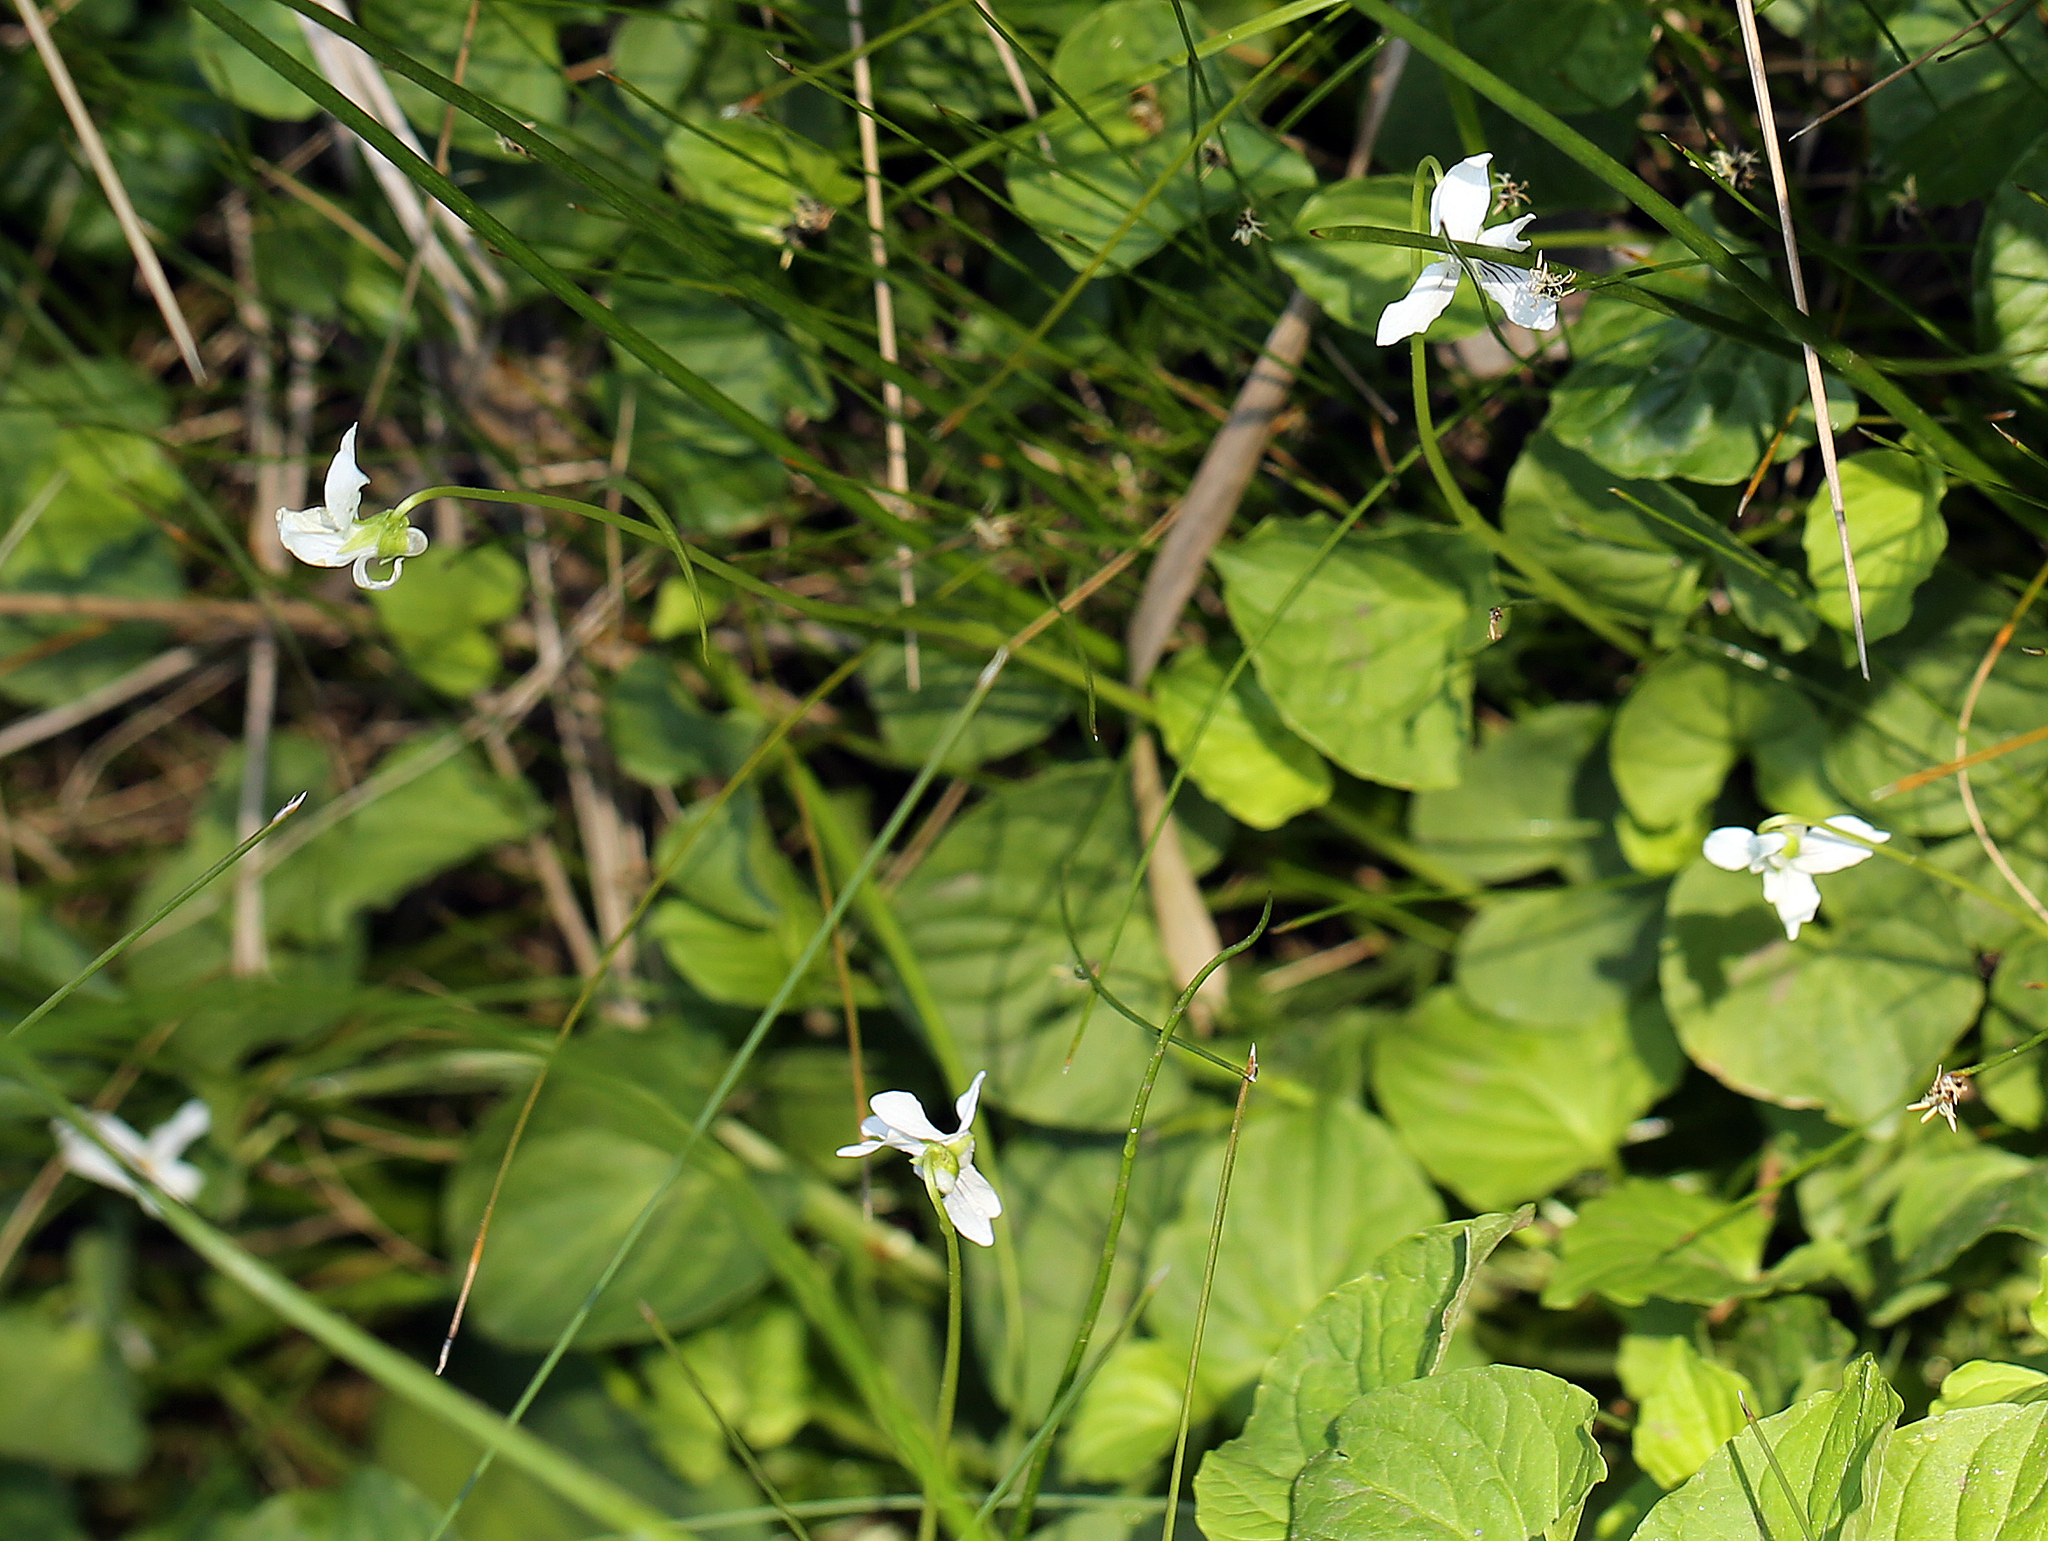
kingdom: Plantae
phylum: Tracheophyta
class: Magnoliopsida
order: Malpighiales
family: Violaceae
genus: Viola
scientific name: Viola palustris
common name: Marsh violet
